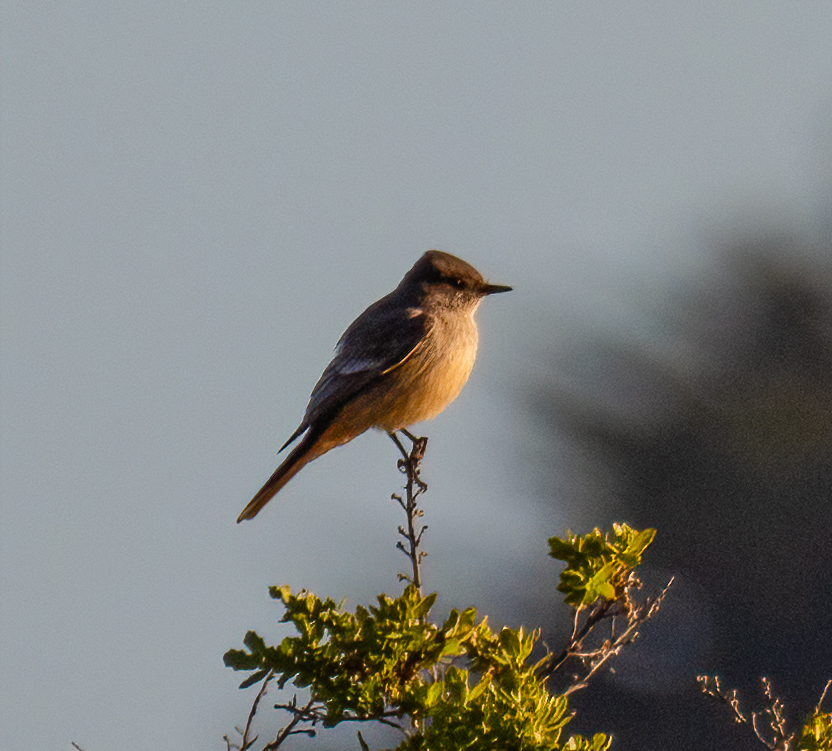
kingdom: Animalia
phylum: Chordata
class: Aves
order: Passeriformes
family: Tyrannidae
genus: Sayornis
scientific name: Sayornis saya
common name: Say's phoebe
